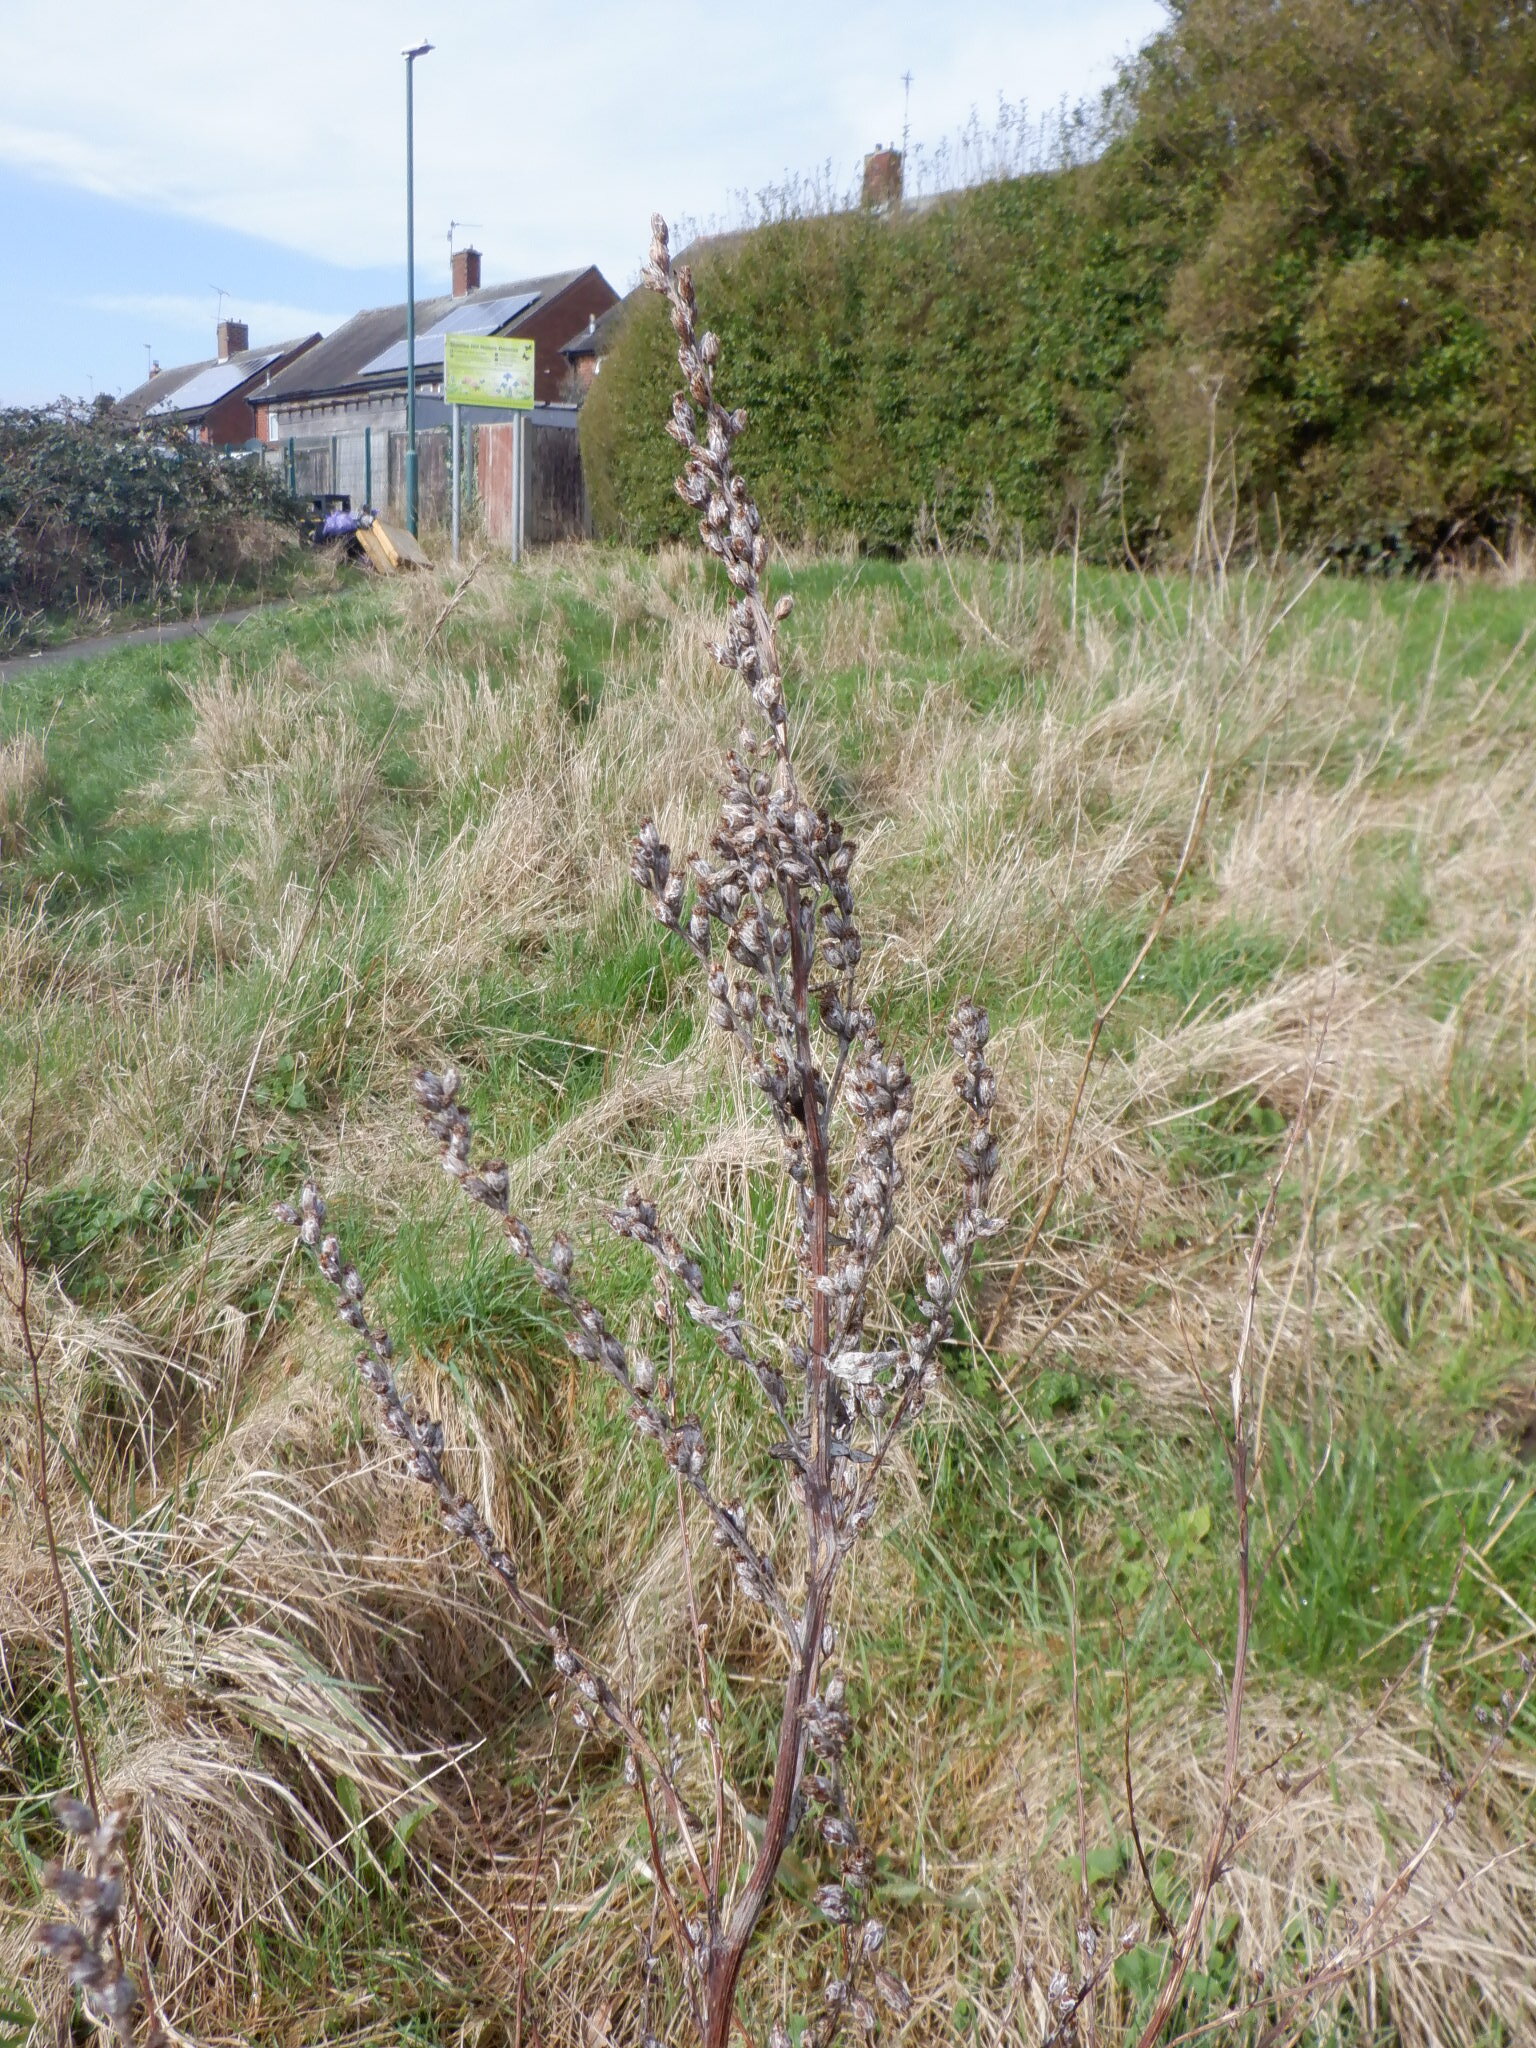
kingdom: Plantae
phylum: Tracheophyta
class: Magnoliopsida
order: Asterales
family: Asteraceae
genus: Artemisia
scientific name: Artemisia vulgaris
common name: Mugwort
